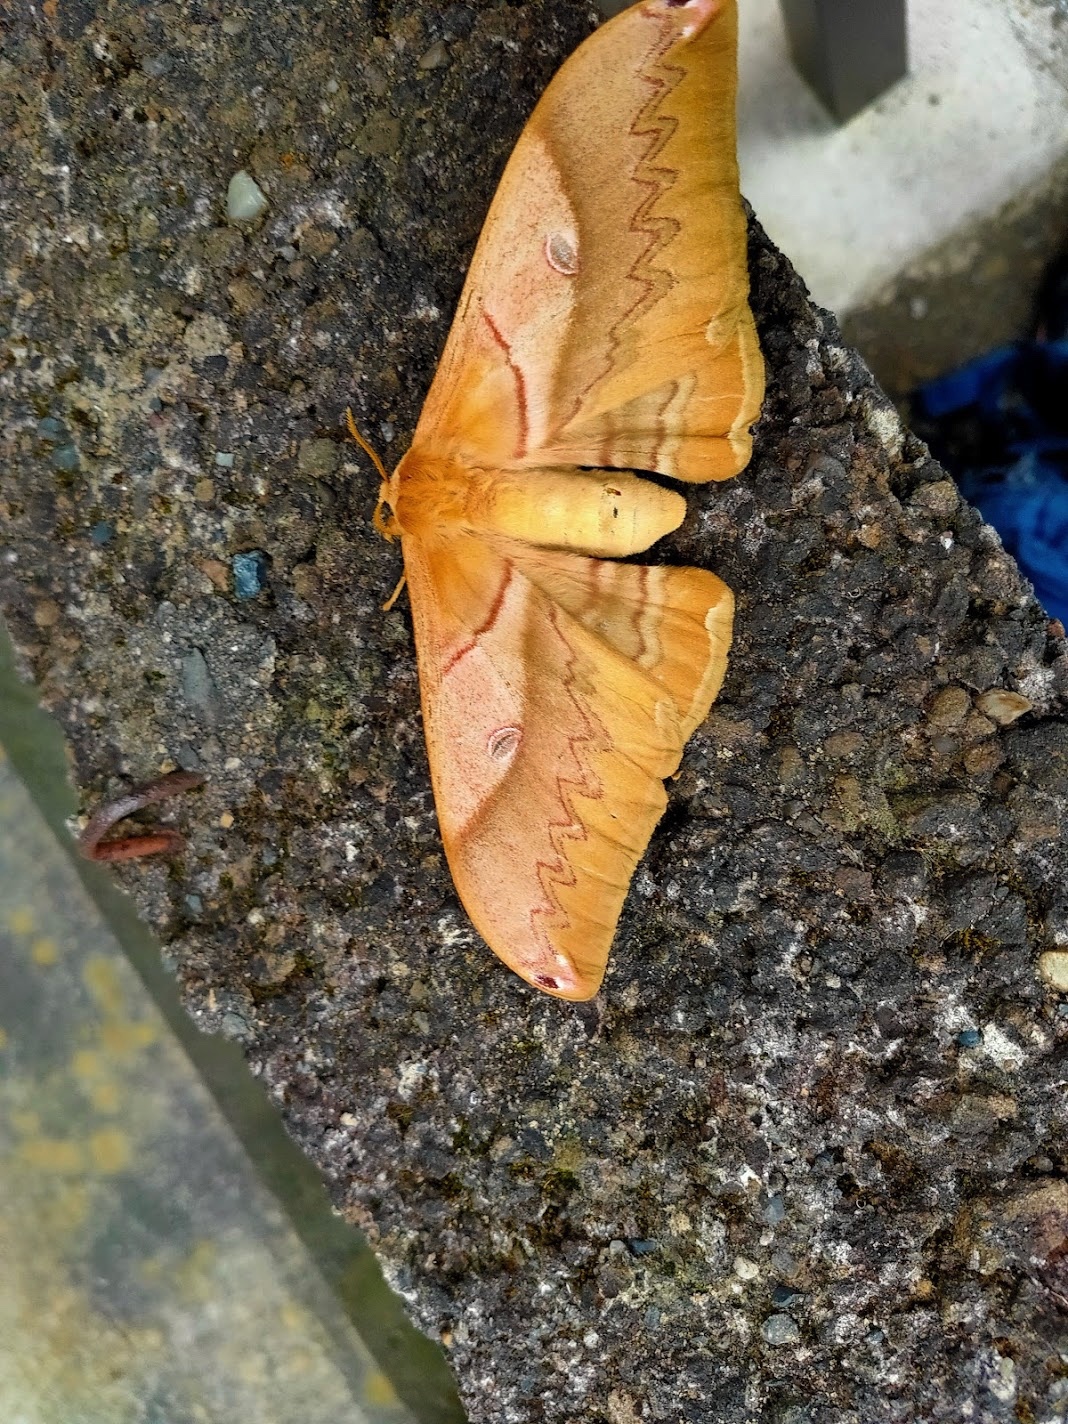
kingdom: Animalia
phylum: Arthropoda
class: Insecta
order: Lepidoptera
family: Saturniidae
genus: Saturnia
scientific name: Saturnia japonica
